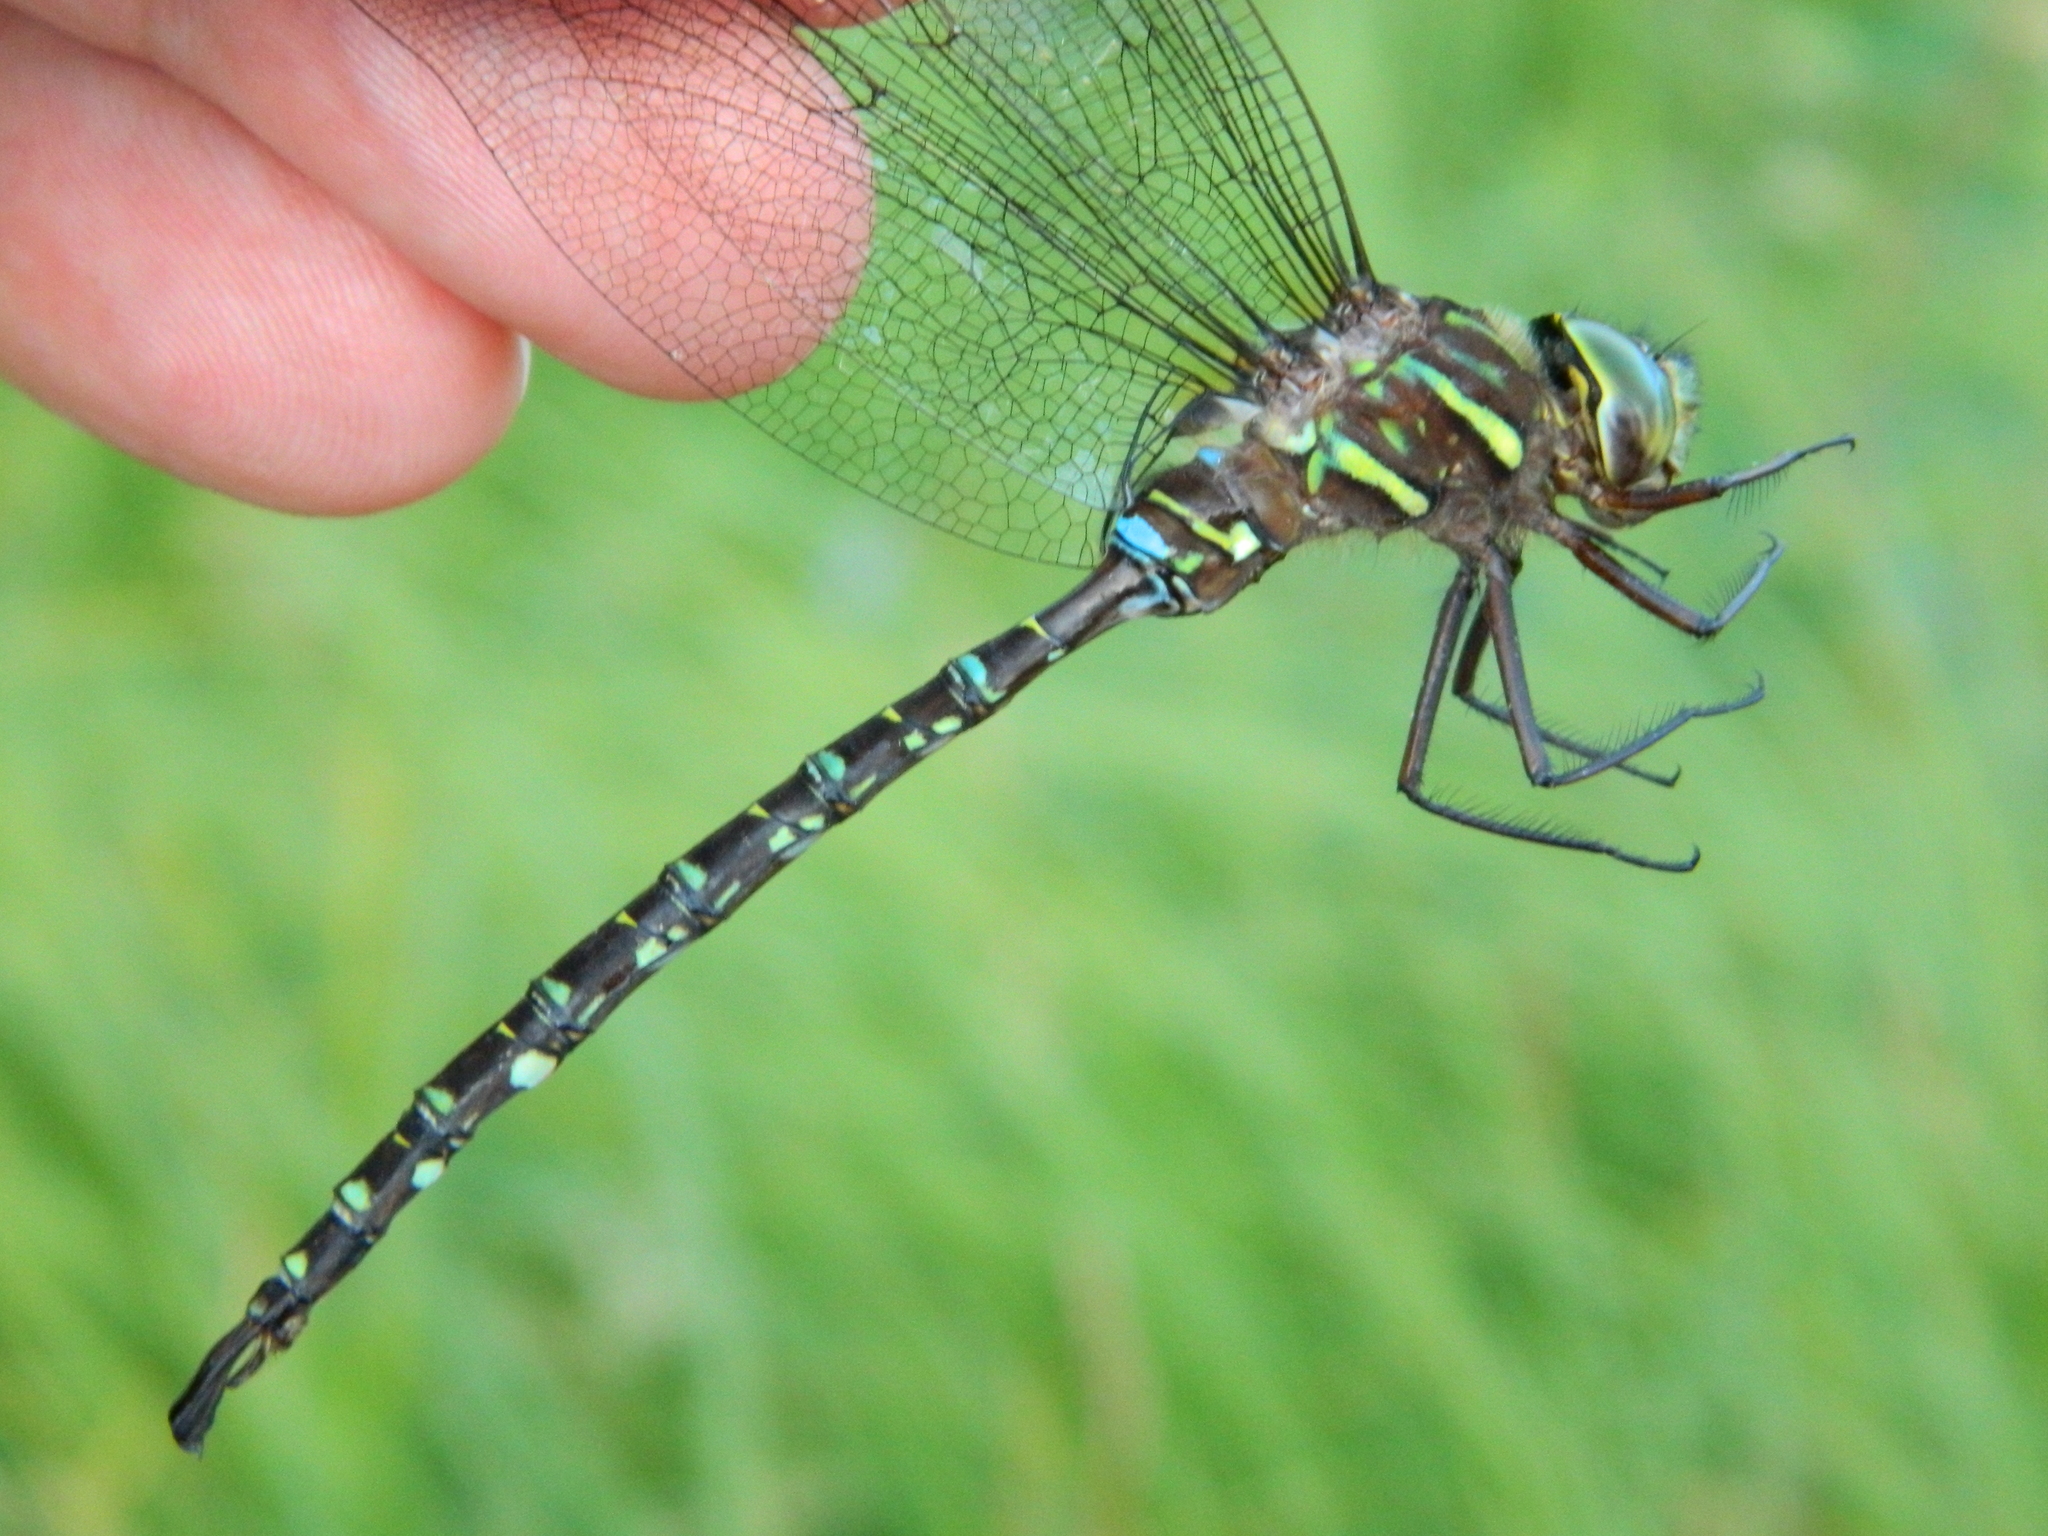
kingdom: Animalia
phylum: Arthropoda
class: Insecta
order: Odonata
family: Aeshnidae
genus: Aeshna
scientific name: Aeshna umbrosa
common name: Shadow darner
